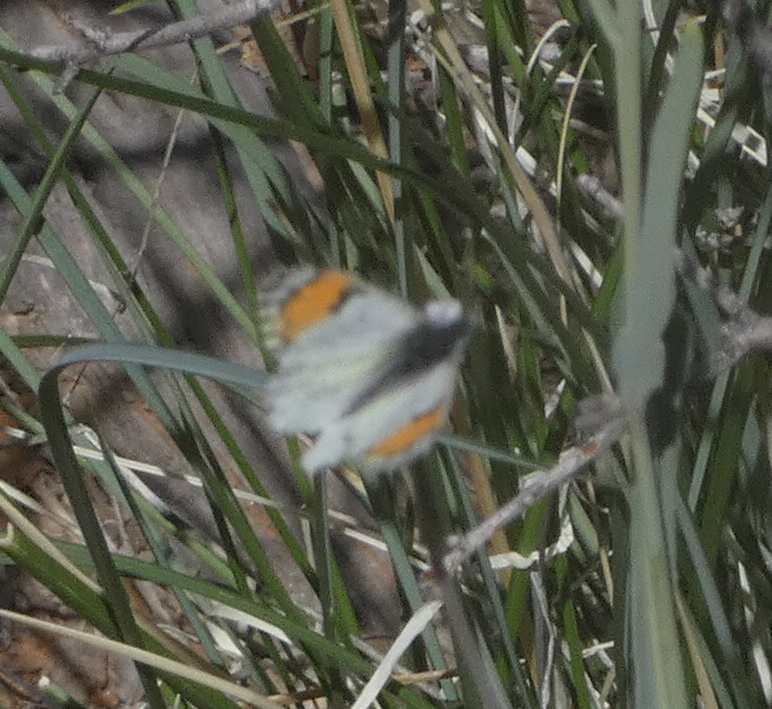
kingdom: Animalia
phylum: Arthropoda
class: Insecta
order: Lepidoptera
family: Pieridae
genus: Anthocharis
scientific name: Anthocharis thoosa
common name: Southwestern orangetip
